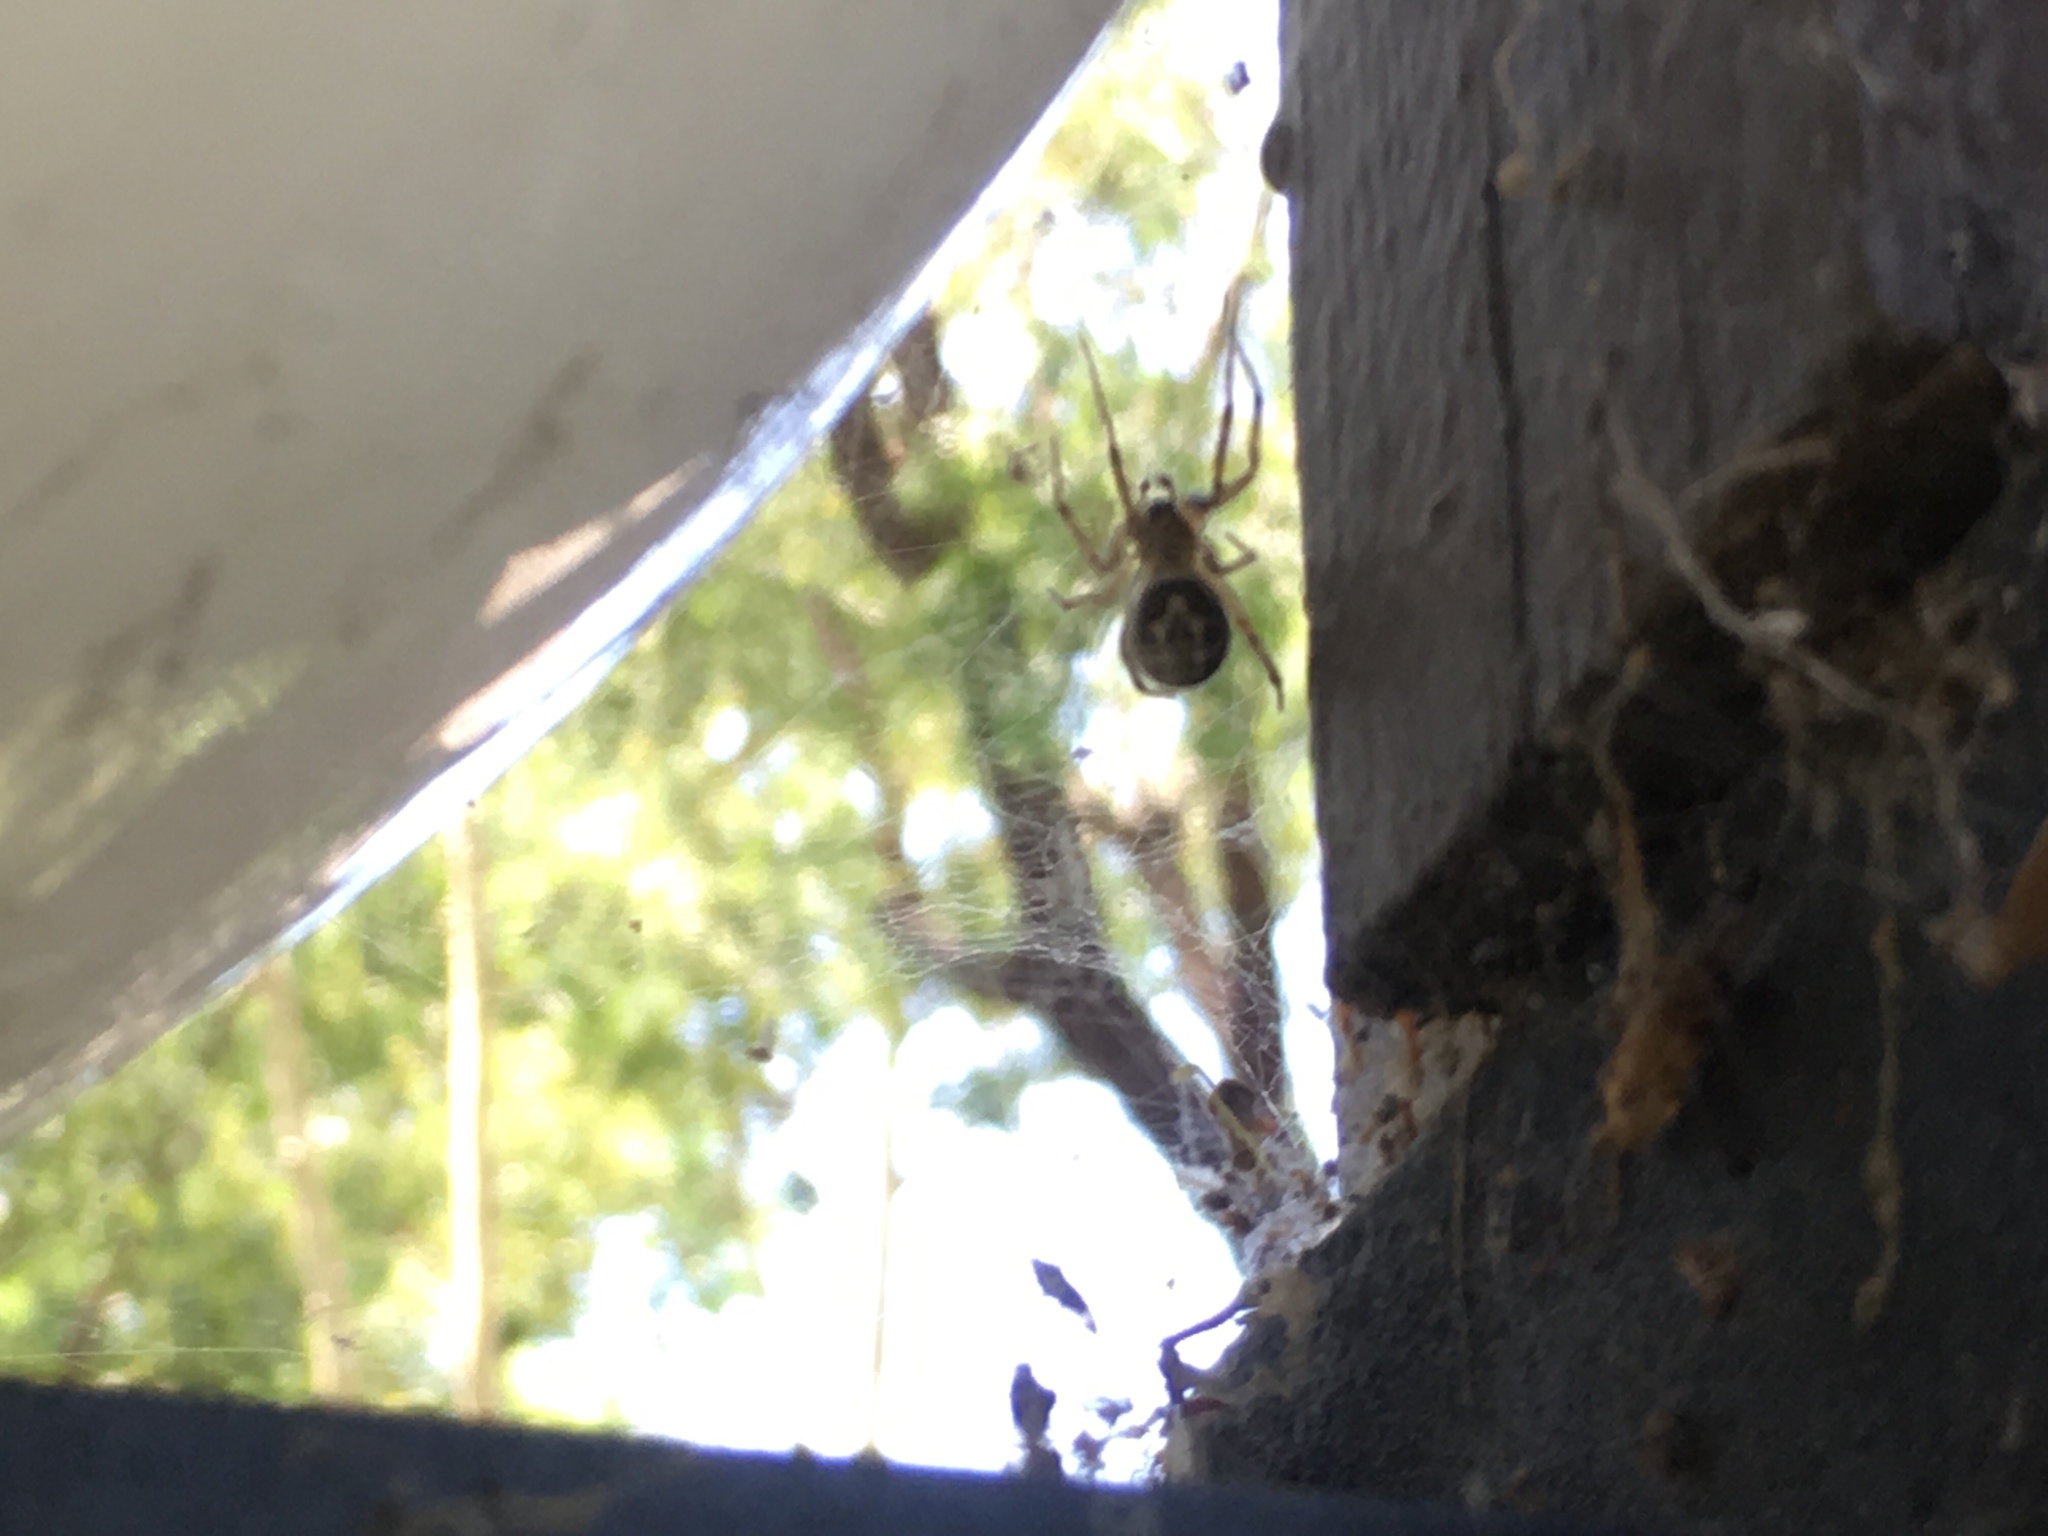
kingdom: Animalia
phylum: Arthropoda
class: Arachnida
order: Araneae
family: Theridiidae
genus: Steatoda
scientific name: Steatoda nobilis
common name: Cobweb weaver
